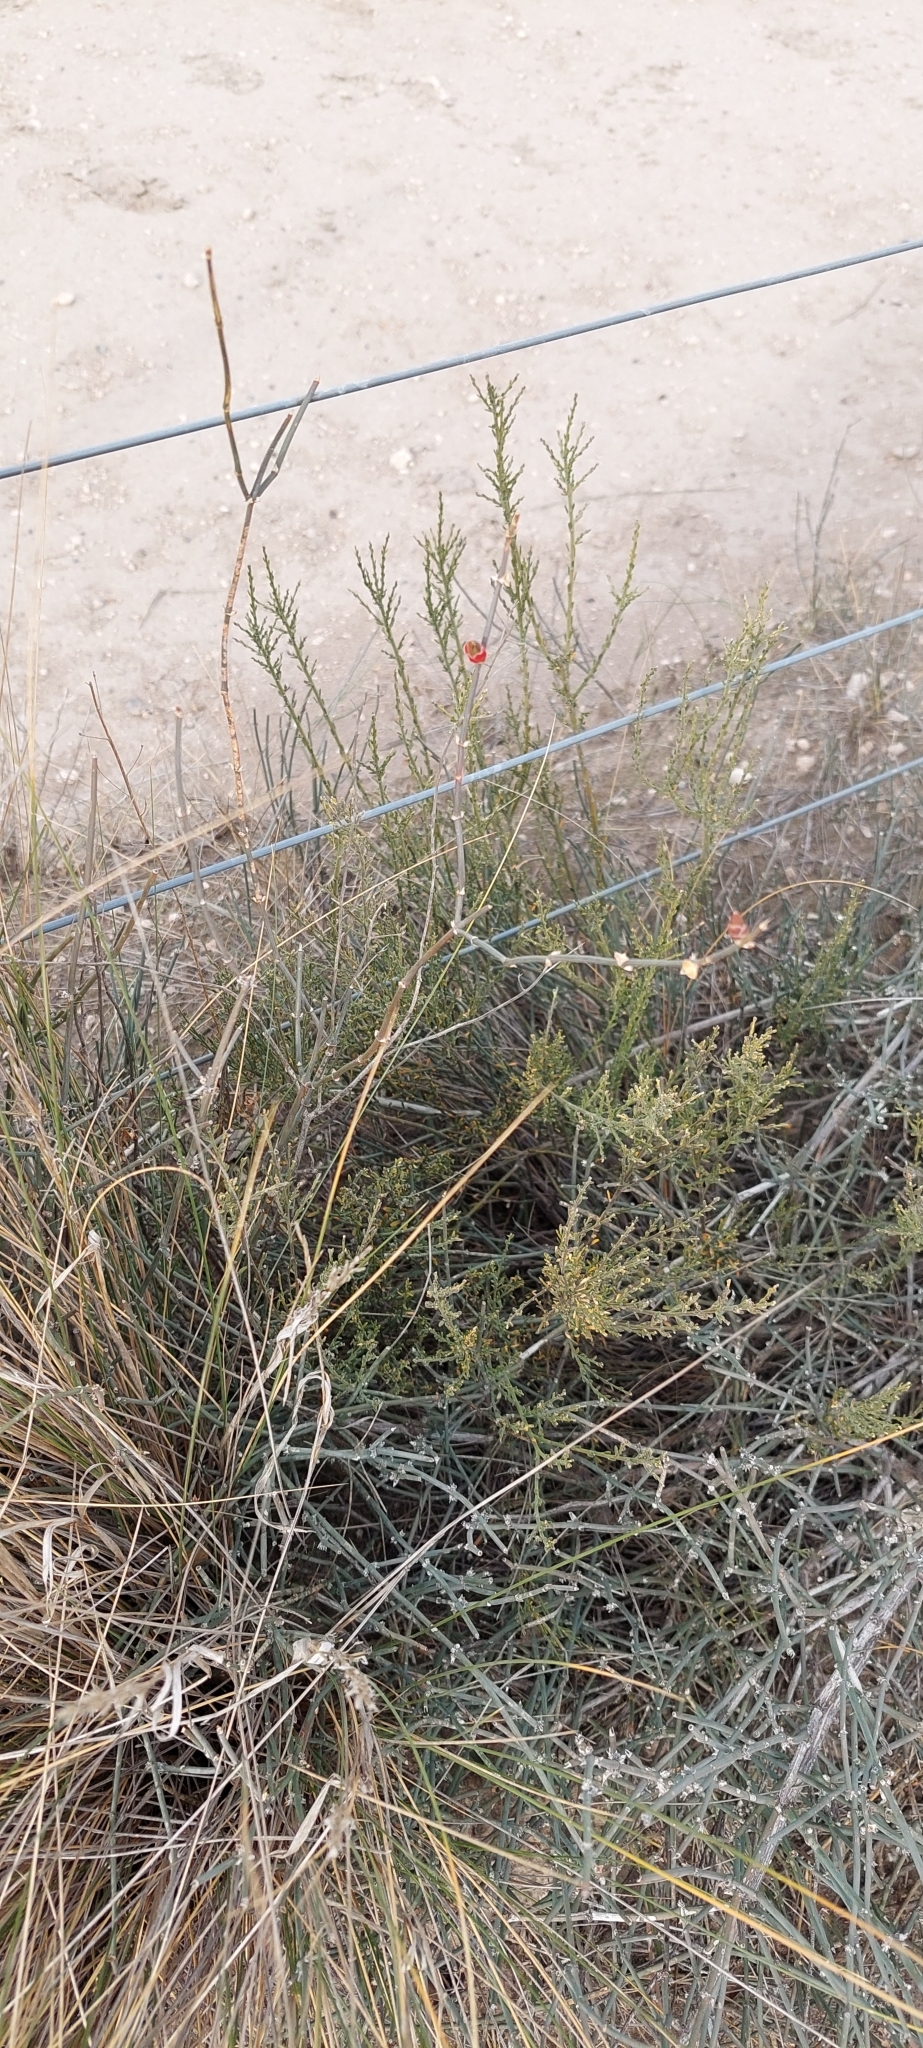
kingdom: Plantae
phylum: Tracheophyta
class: Gnetopsida
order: Ephedrales
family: Ephedraceae
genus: Ephedra
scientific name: Ephedra triandra
